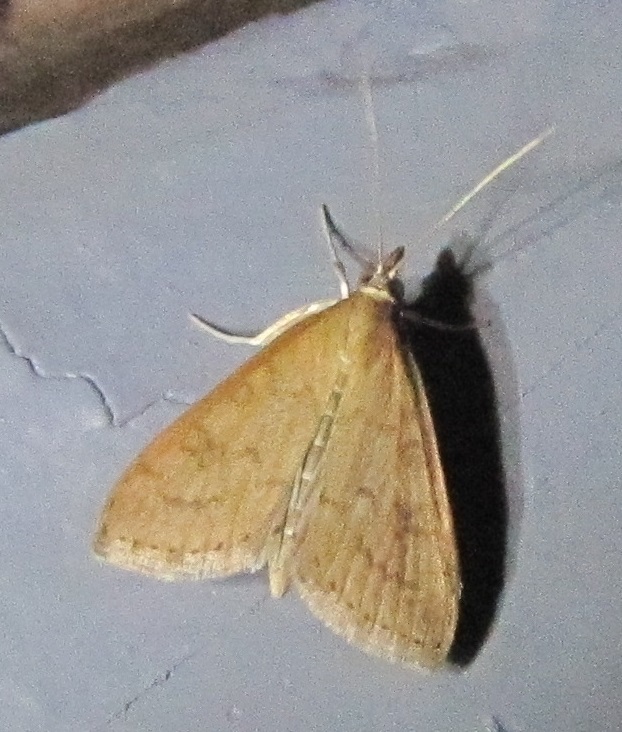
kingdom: Animalia
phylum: Arthropoda
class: Insecta
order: Lepidoptera
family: Crambidae
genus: Udea
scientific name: Udea rubigalis
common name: Celery leaftier moth
